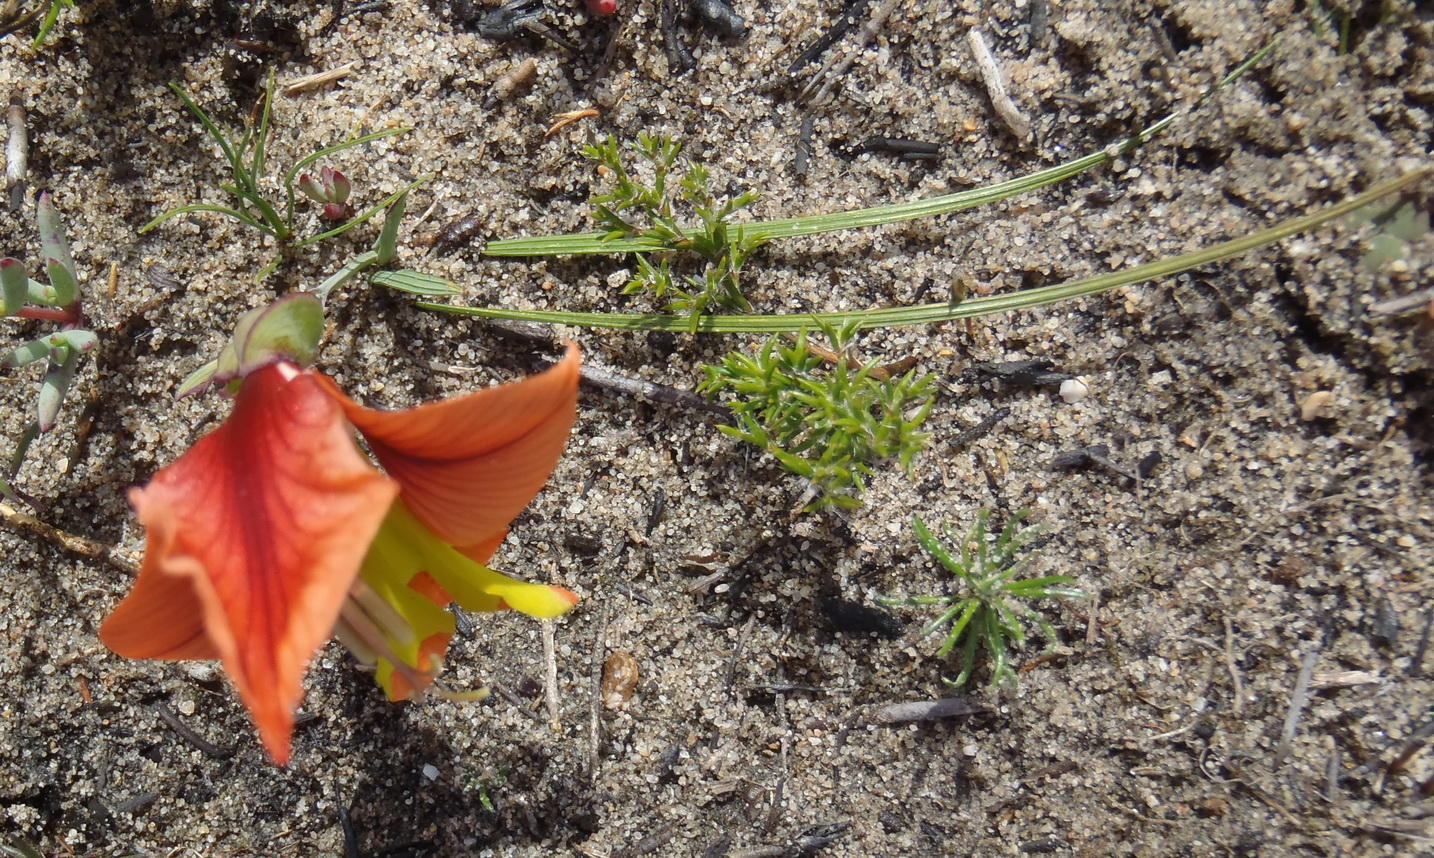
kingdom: Plantae
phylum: Tracheophyta
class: Liliopsida
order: Asparagales
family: Iridaceae
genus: Gladiolus
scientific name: Gladiolus alatus
